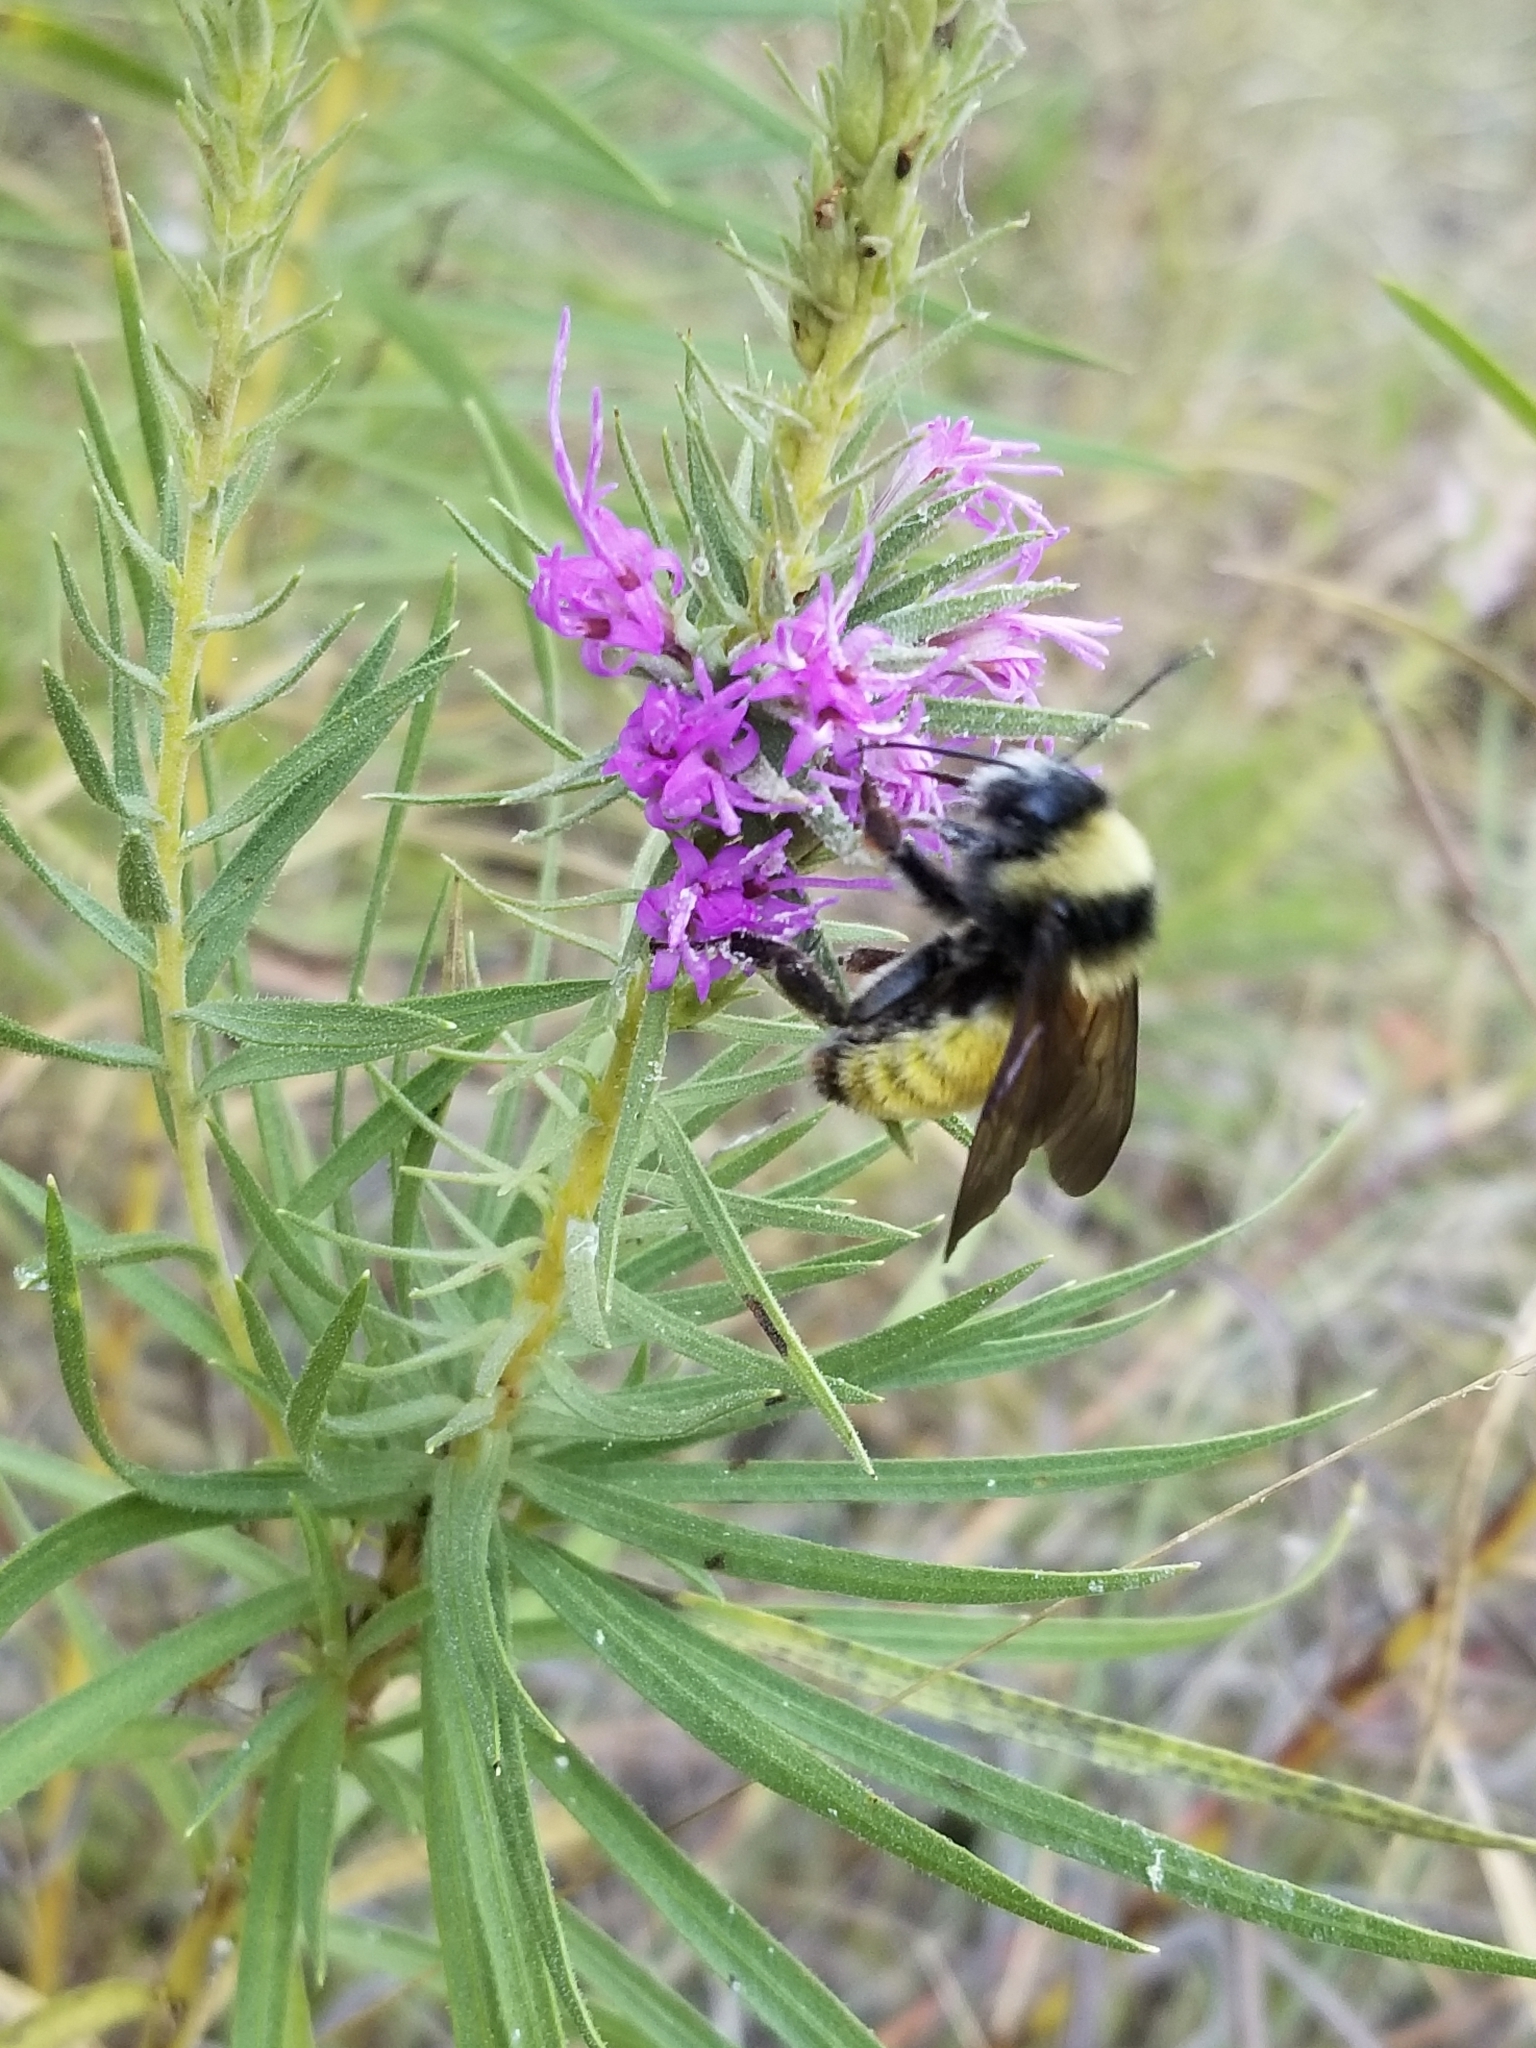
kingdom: Animalia
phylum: Arthropoda
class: Insecta
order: Hymenoptera
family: Apidae
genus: Bombus
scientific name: Bombus pensylvanicus
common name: Bumble bee
